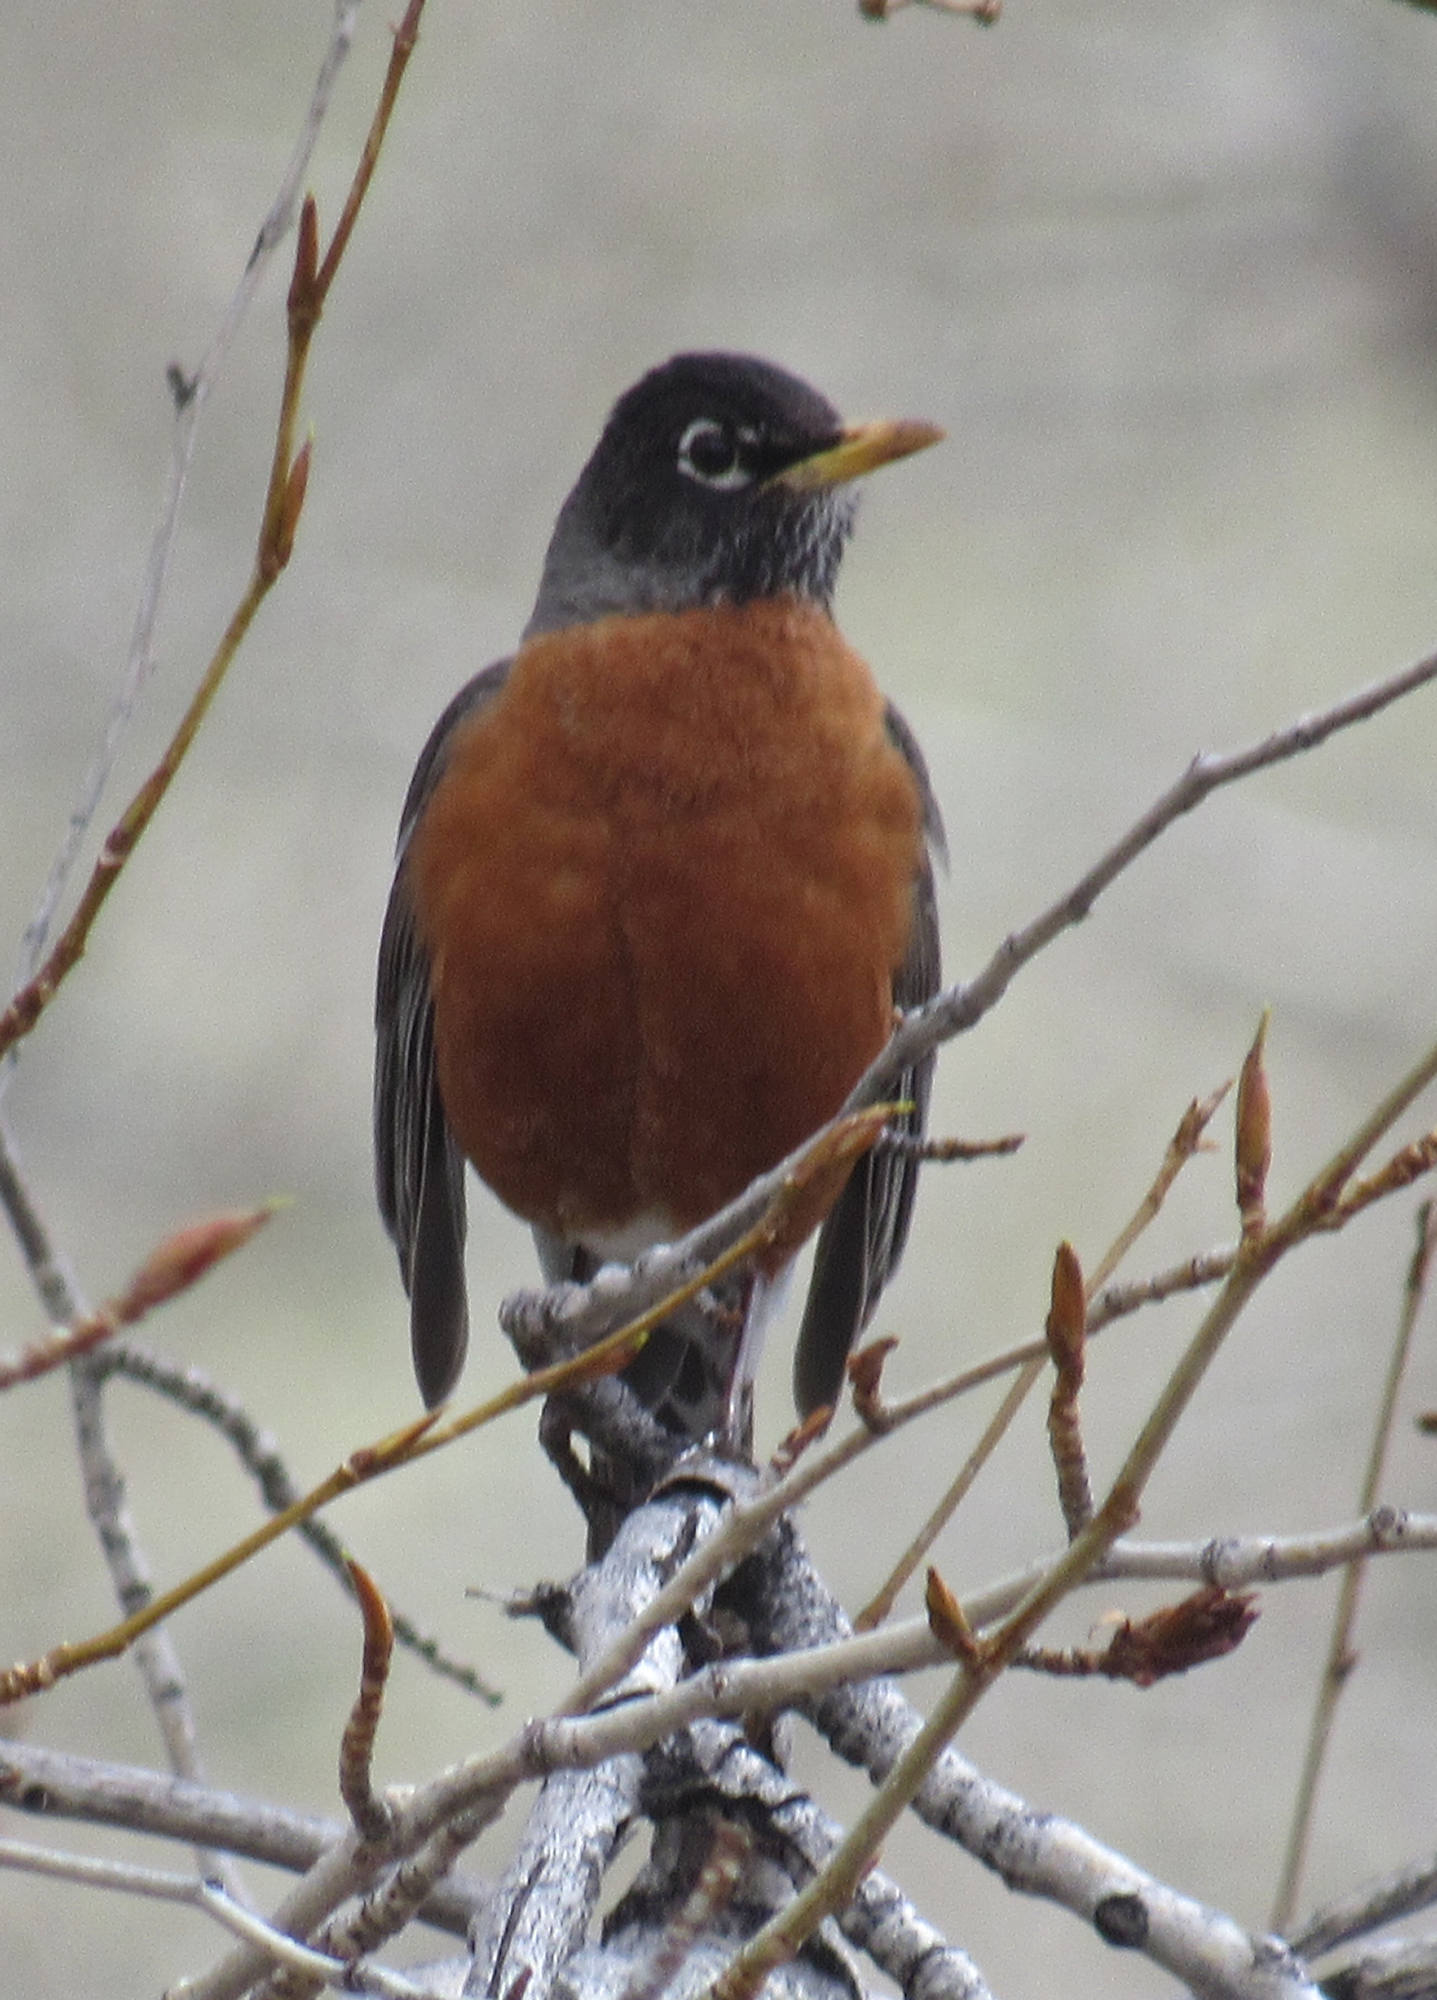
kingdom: Animalia
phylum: Chordata
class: Aves
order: Passeriformes
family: Turdidae
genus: Turdus
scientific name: Turdus migratorius
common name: American robin
